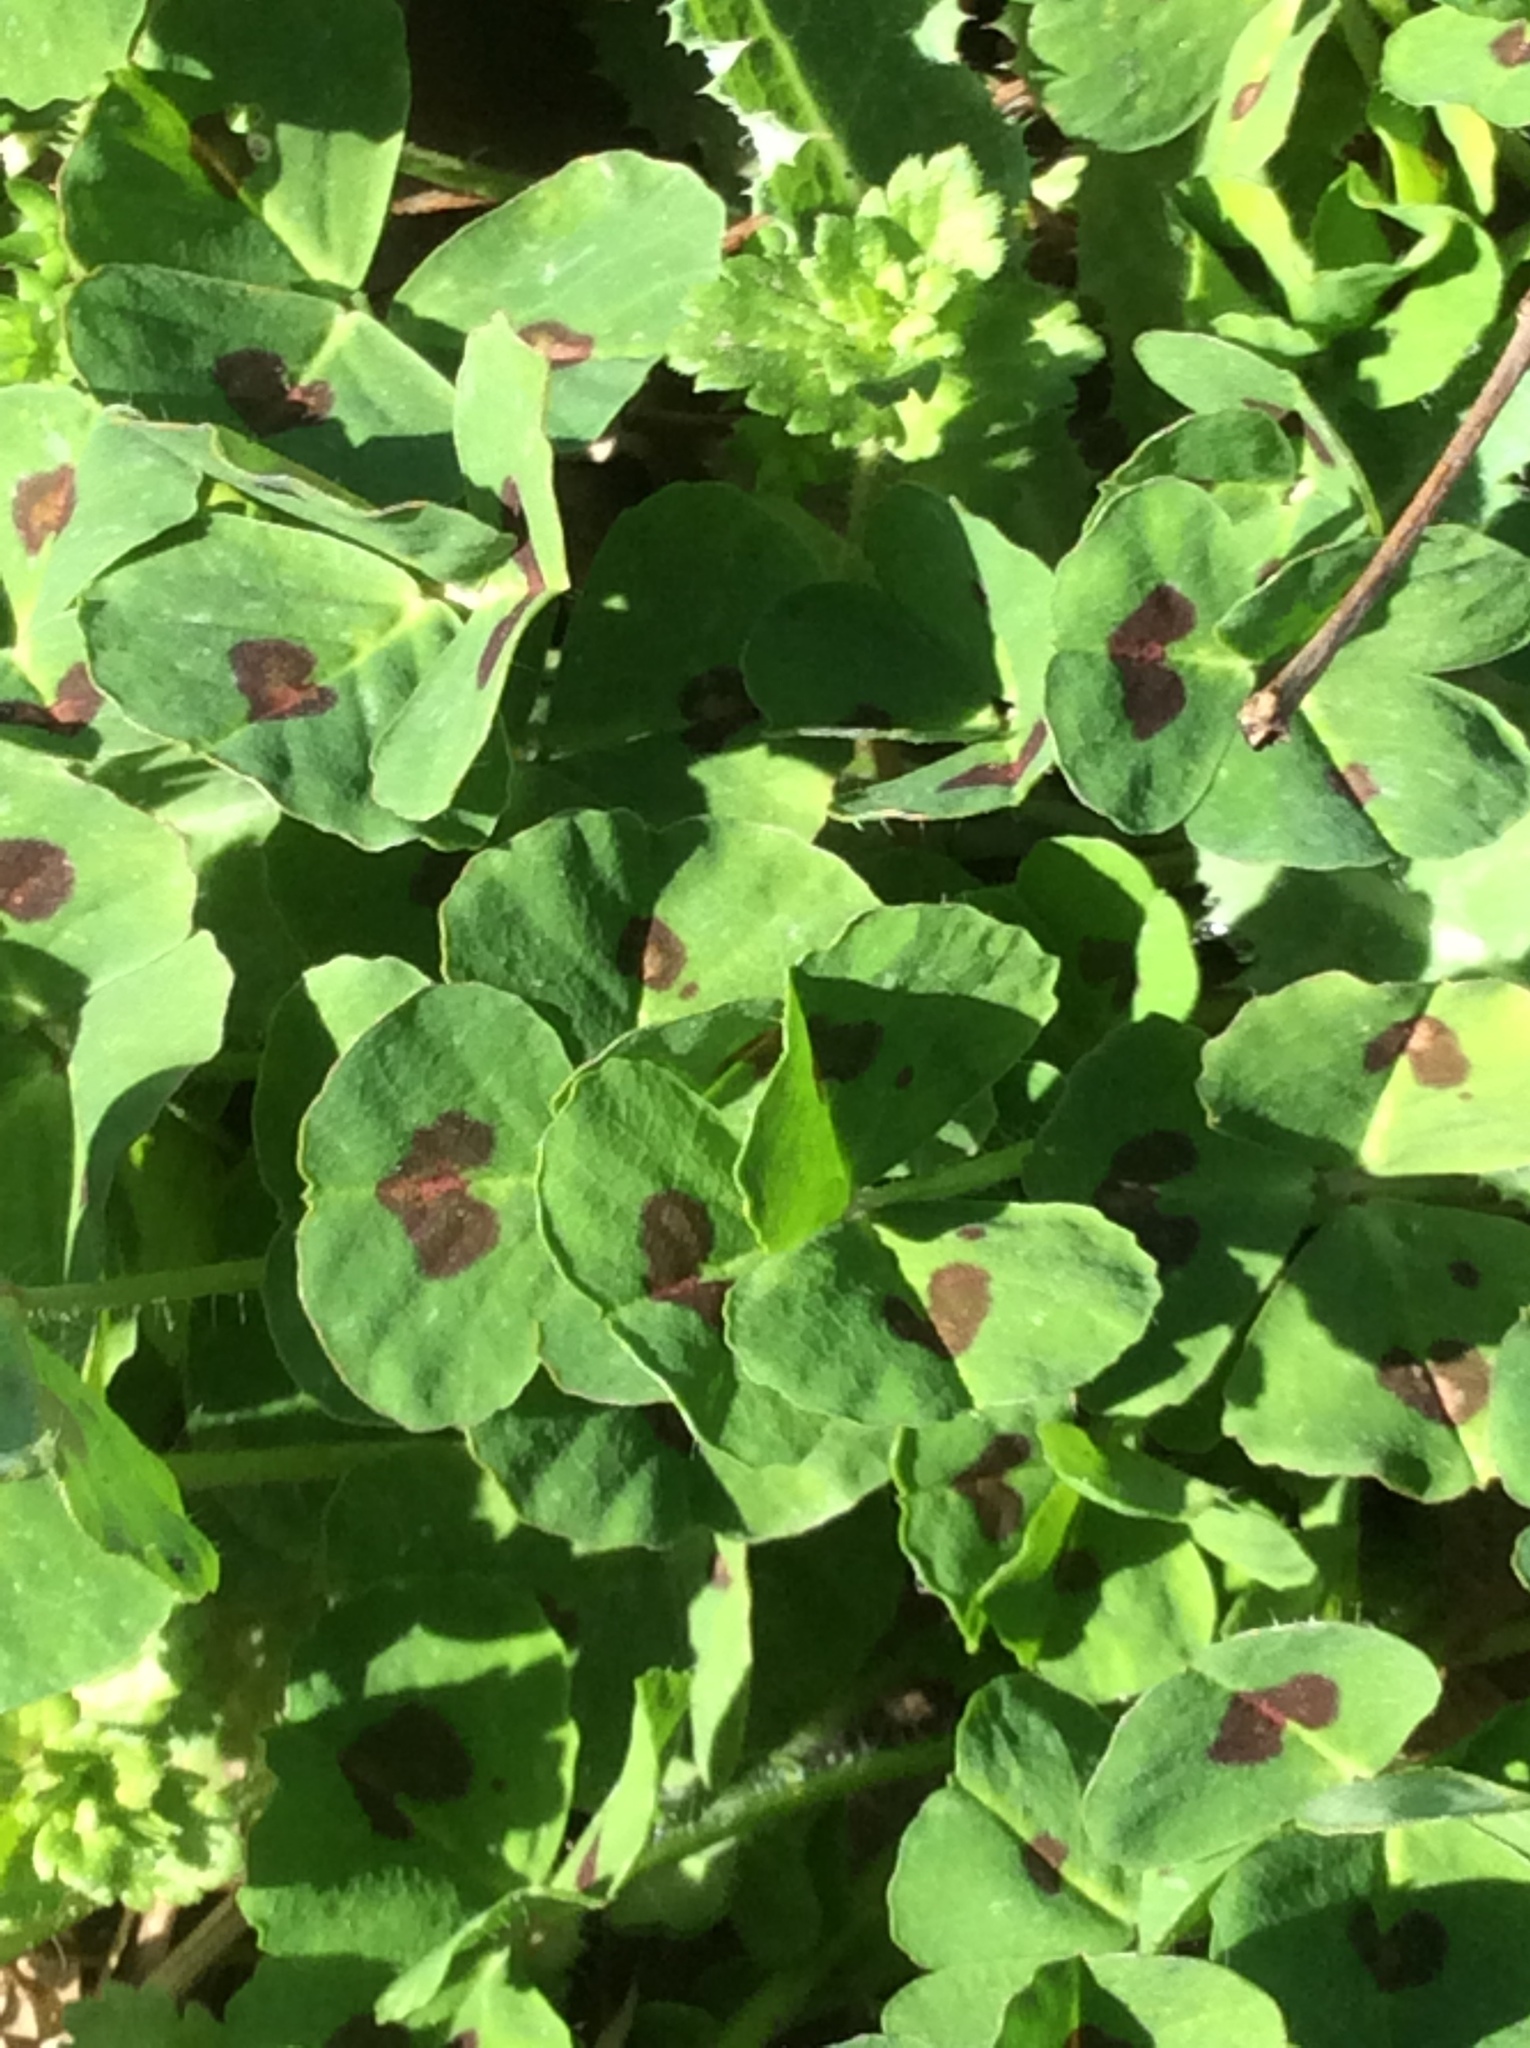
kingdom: Plantae
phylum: Tracheophyta
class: Magnoliopsida
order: Fabales
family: Fabaceae
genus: Medicago
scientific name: Medicago arabica
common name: Spotted medick
